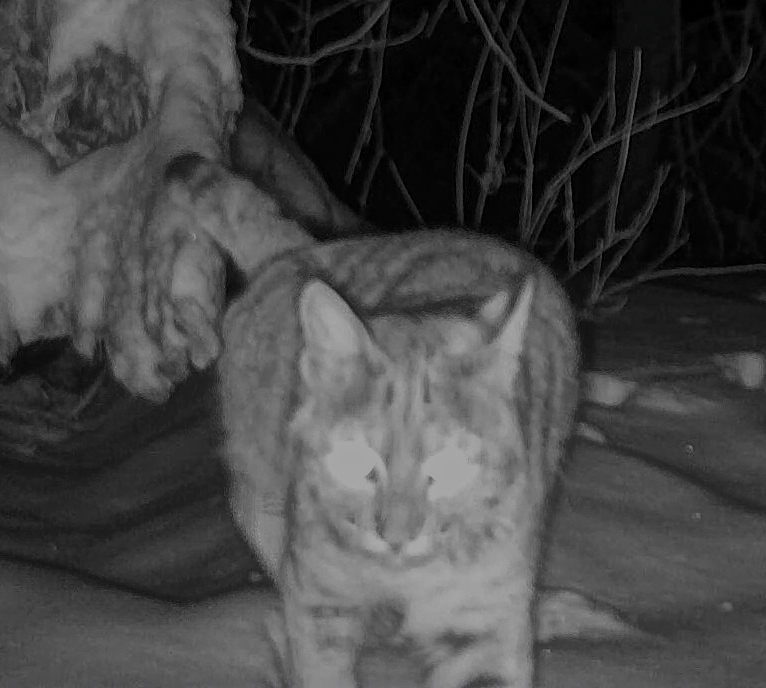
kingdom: Animalia
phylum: Chordata
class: Mammalia
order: Carnivora
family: Felidae
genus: Lynx
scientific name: Lynx rufus
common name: Bobcat
